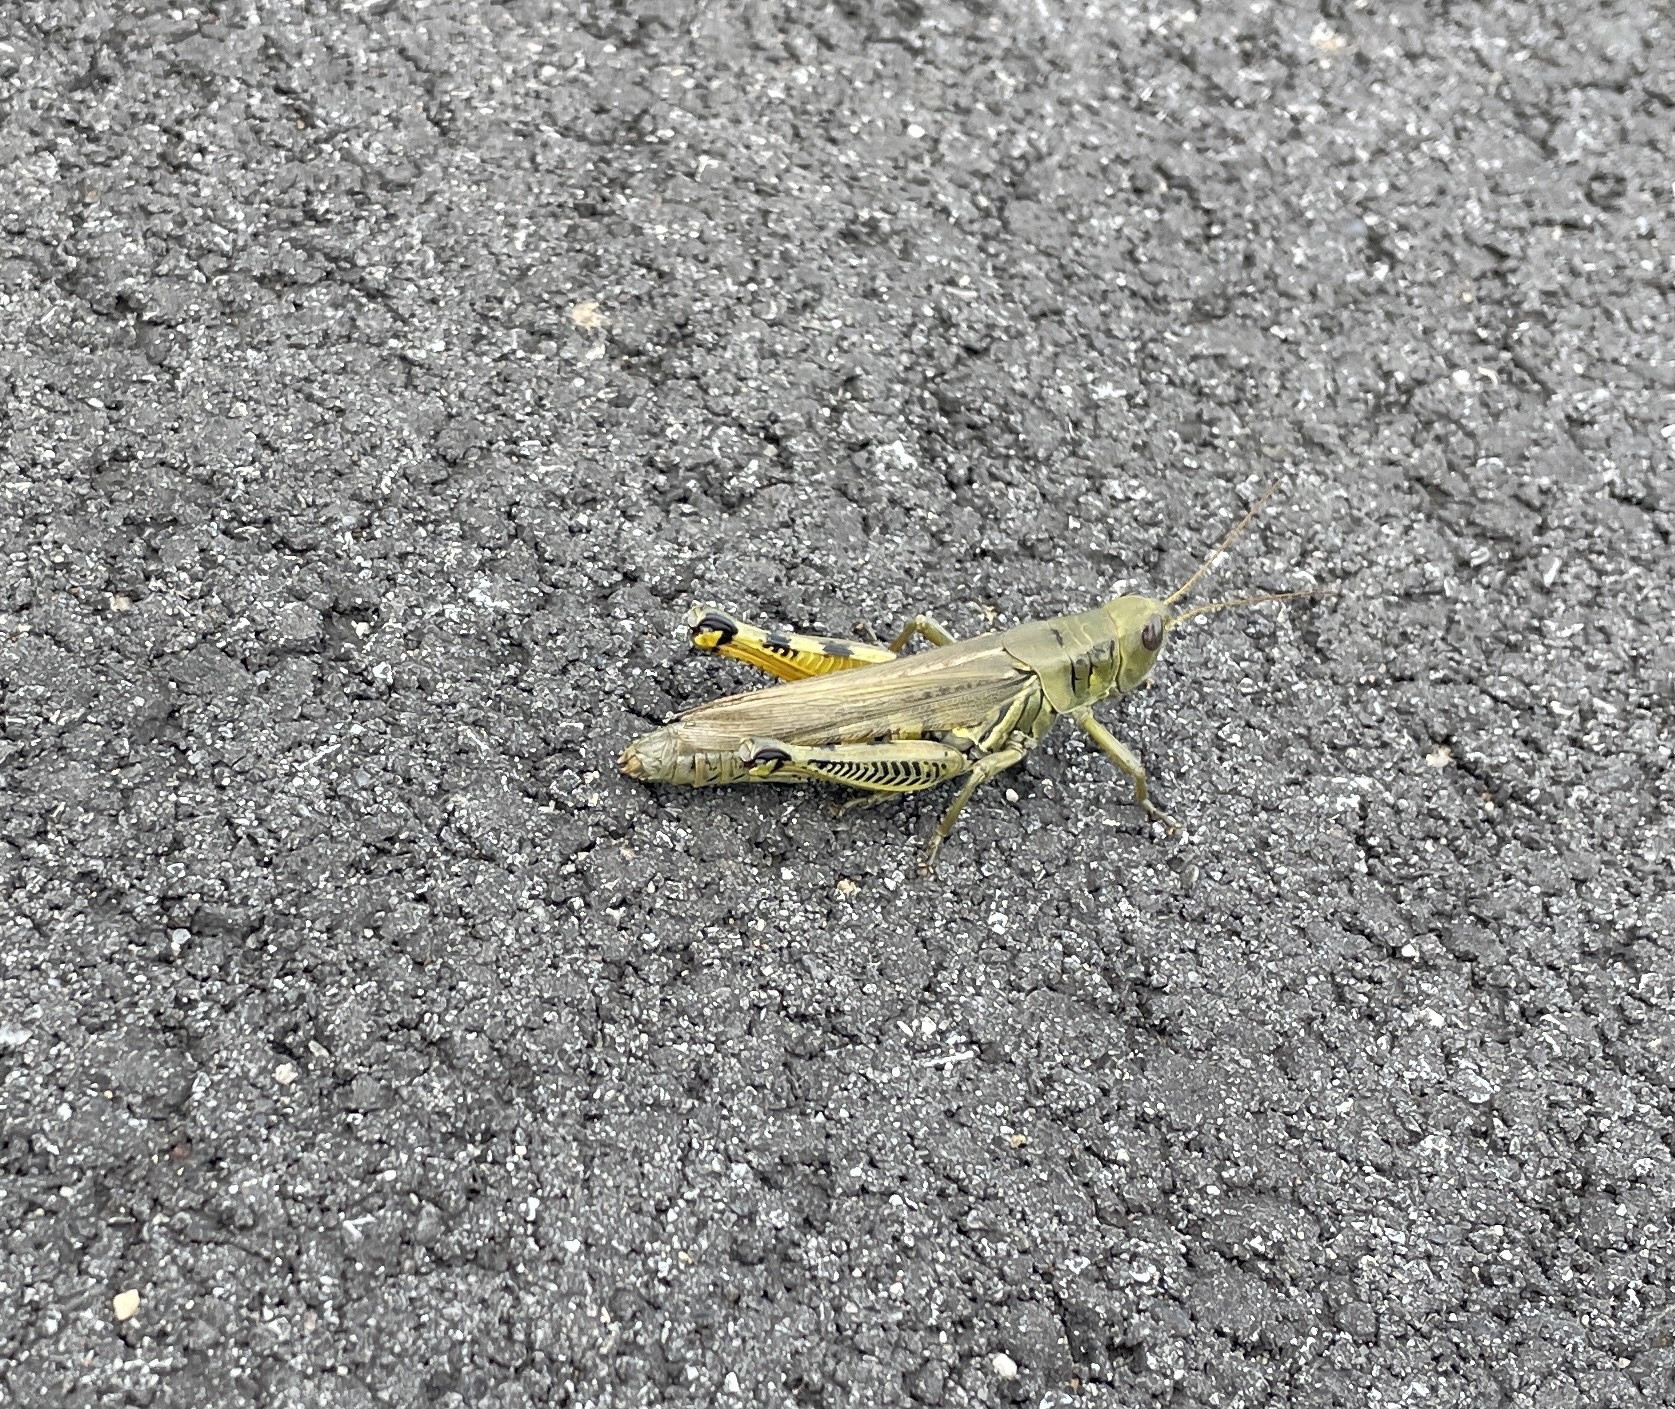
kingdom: Animalia
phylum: Arthropoda
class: Insecta
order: Orthoptera
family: Acrididae
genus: Melanoplus
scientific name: Melanoplus differentialis
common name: Differential grasshopper
